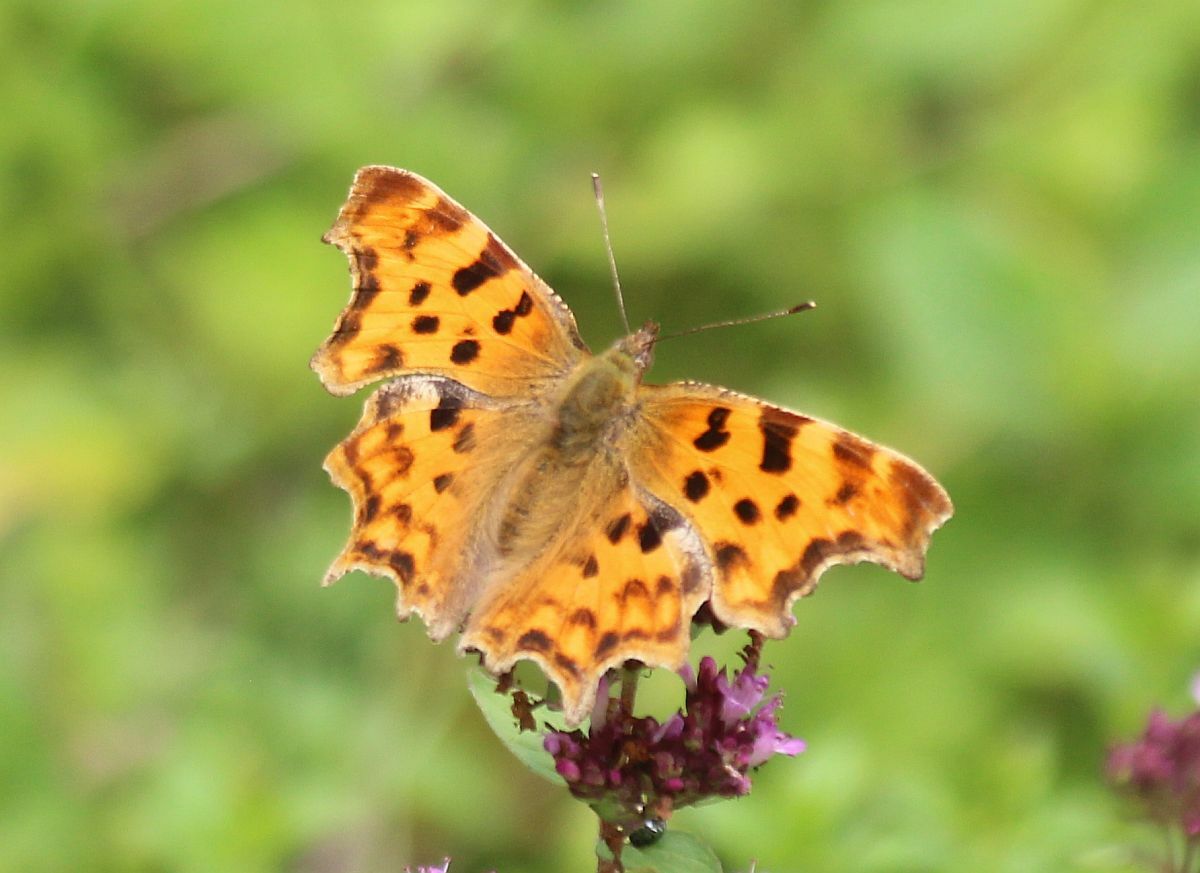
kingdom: Animalia
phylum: Arthropoda
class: Insecta
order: Lepidoptera
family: Nymphalidae
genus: Polygonia
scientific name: Polygonia c-album
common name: Comma
